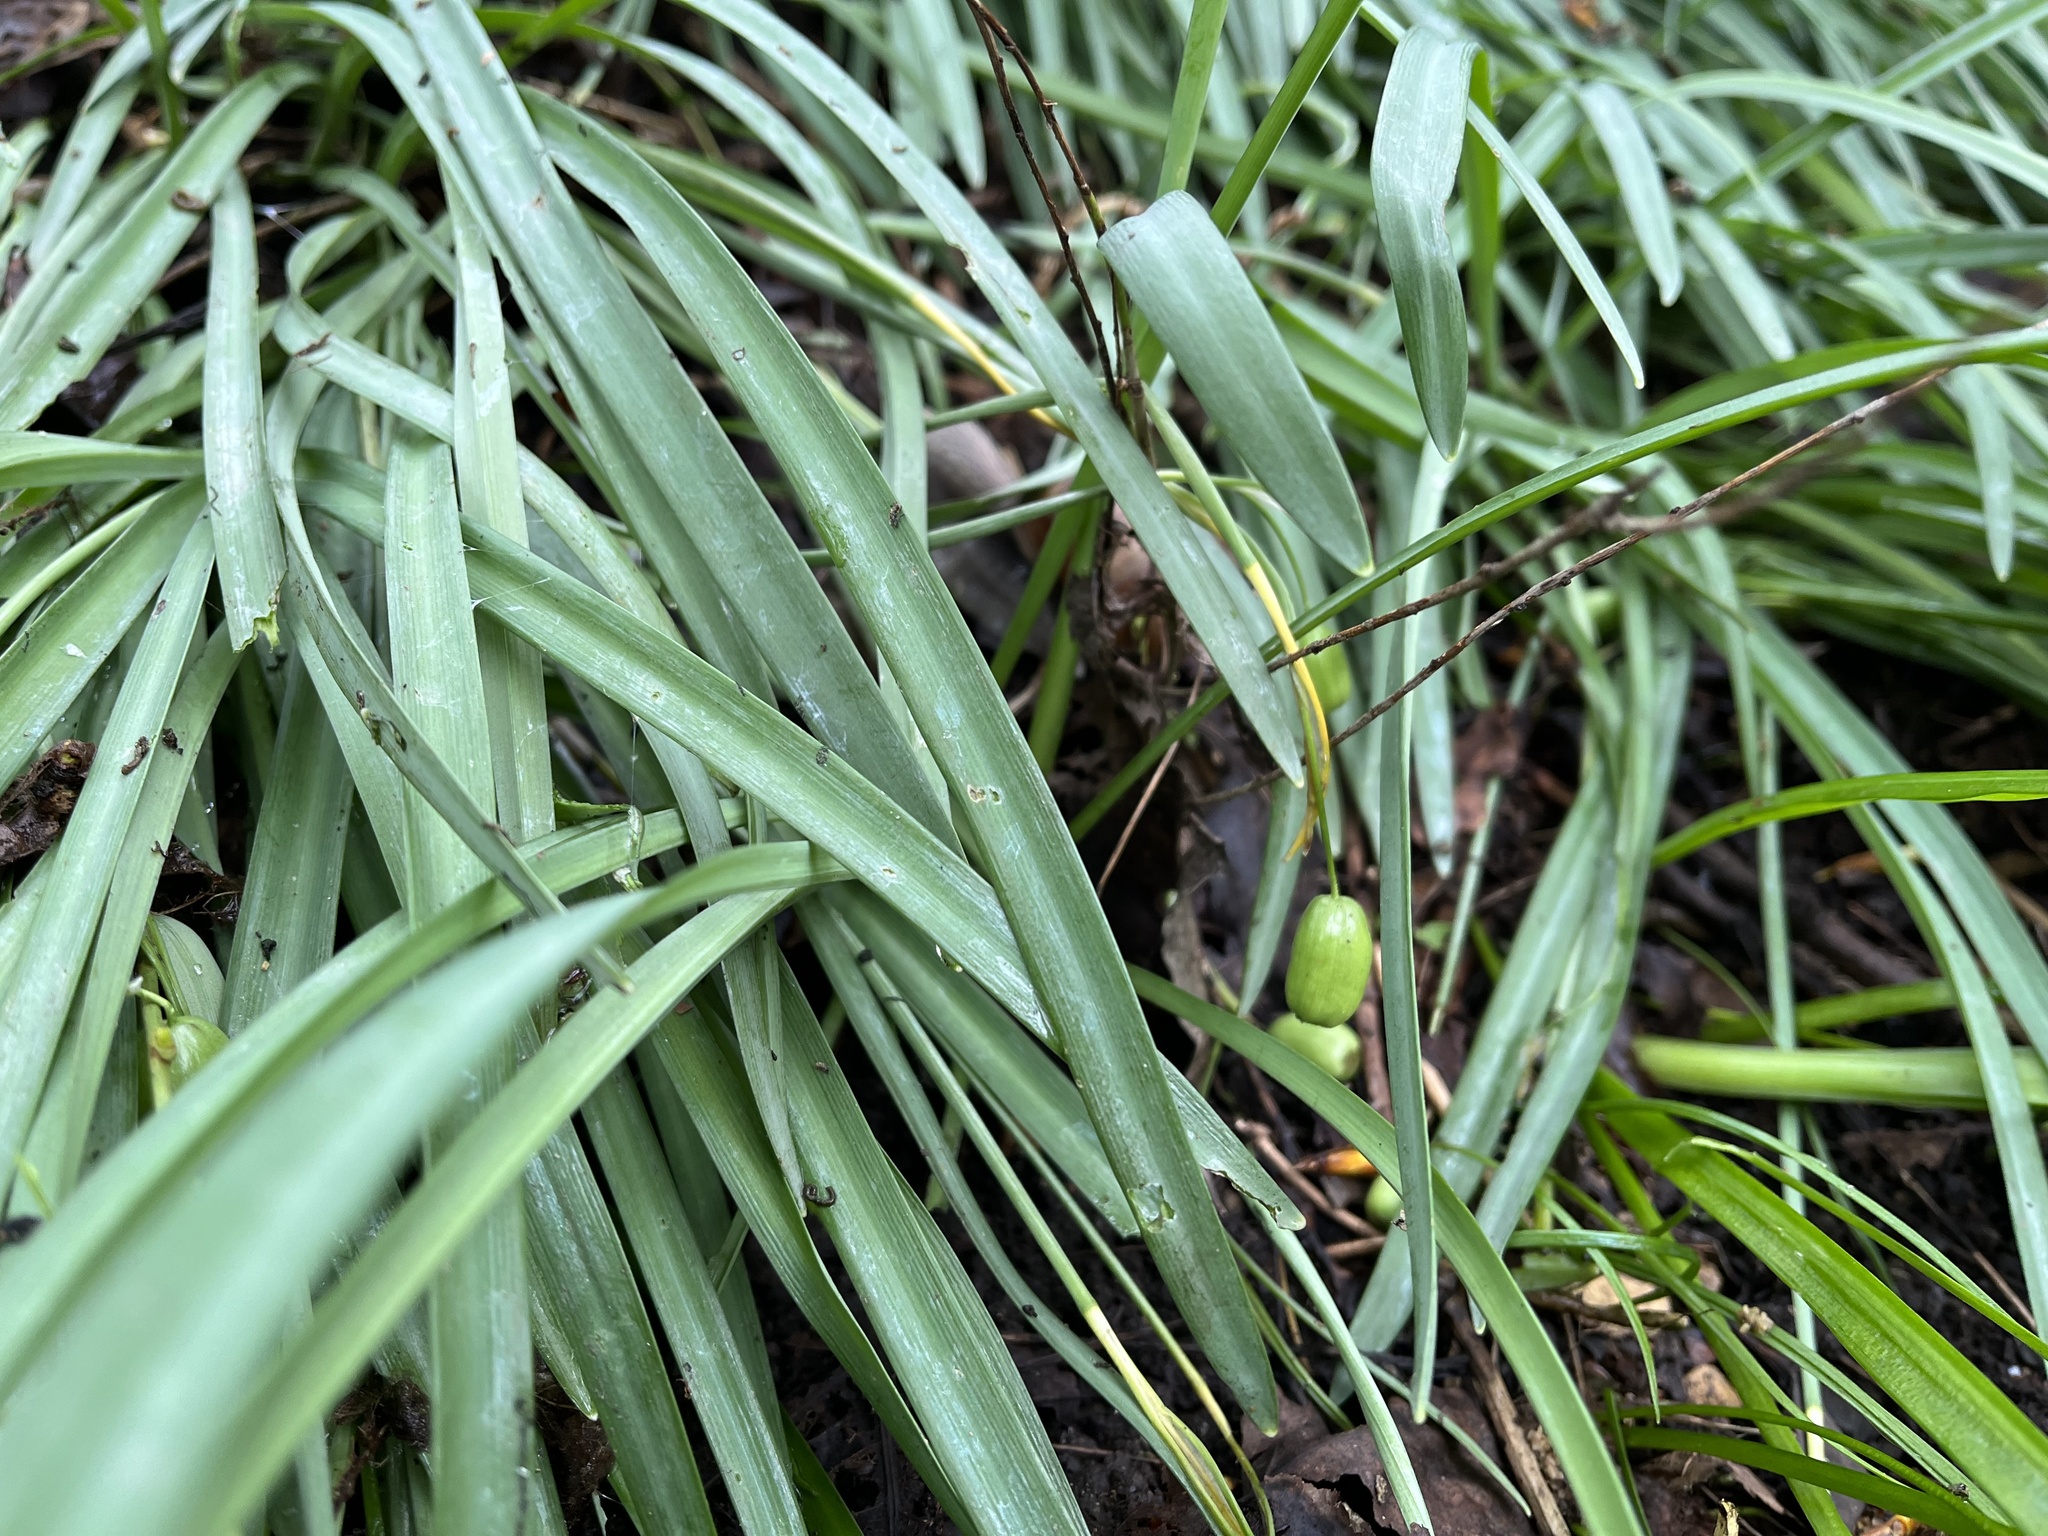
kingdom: Plantae
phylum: Tracheophyta
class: Liliopsida
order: Asparagales
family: Amaryllidaceae
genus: Galanthus
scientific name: Galanthus nivalis
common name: Snowdrop
